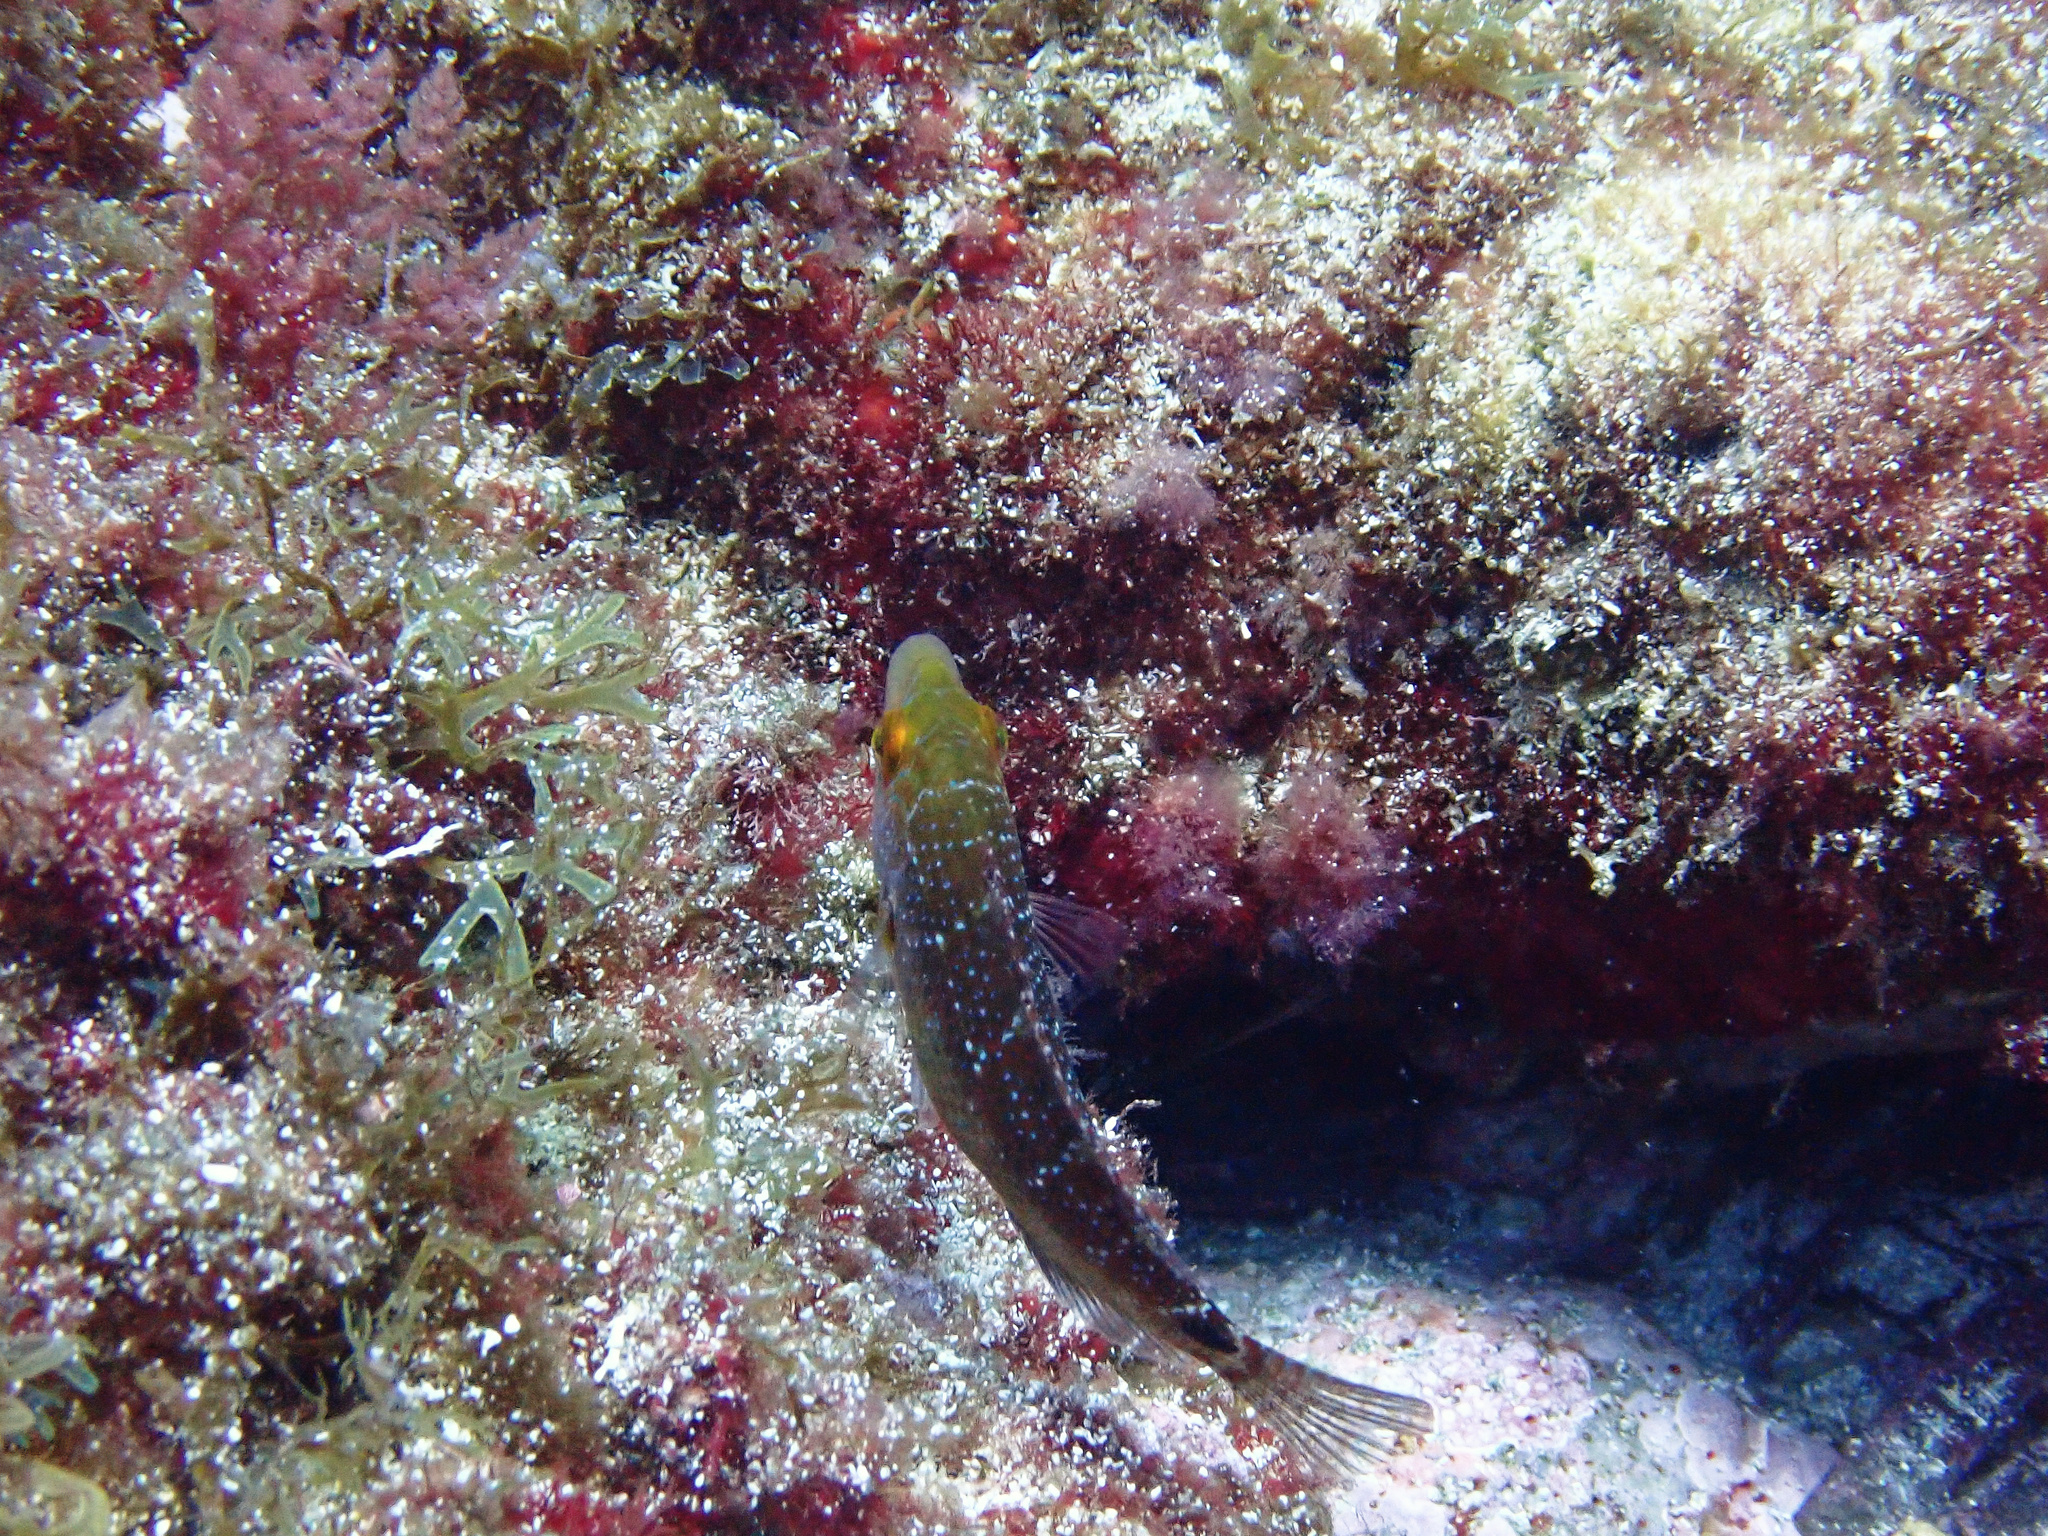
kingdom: Animalia
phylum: Chordata
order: Perciformes
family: Labridae
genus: Symphodus
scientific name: Symphodus mediterraneus
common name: Axillary wrasse
